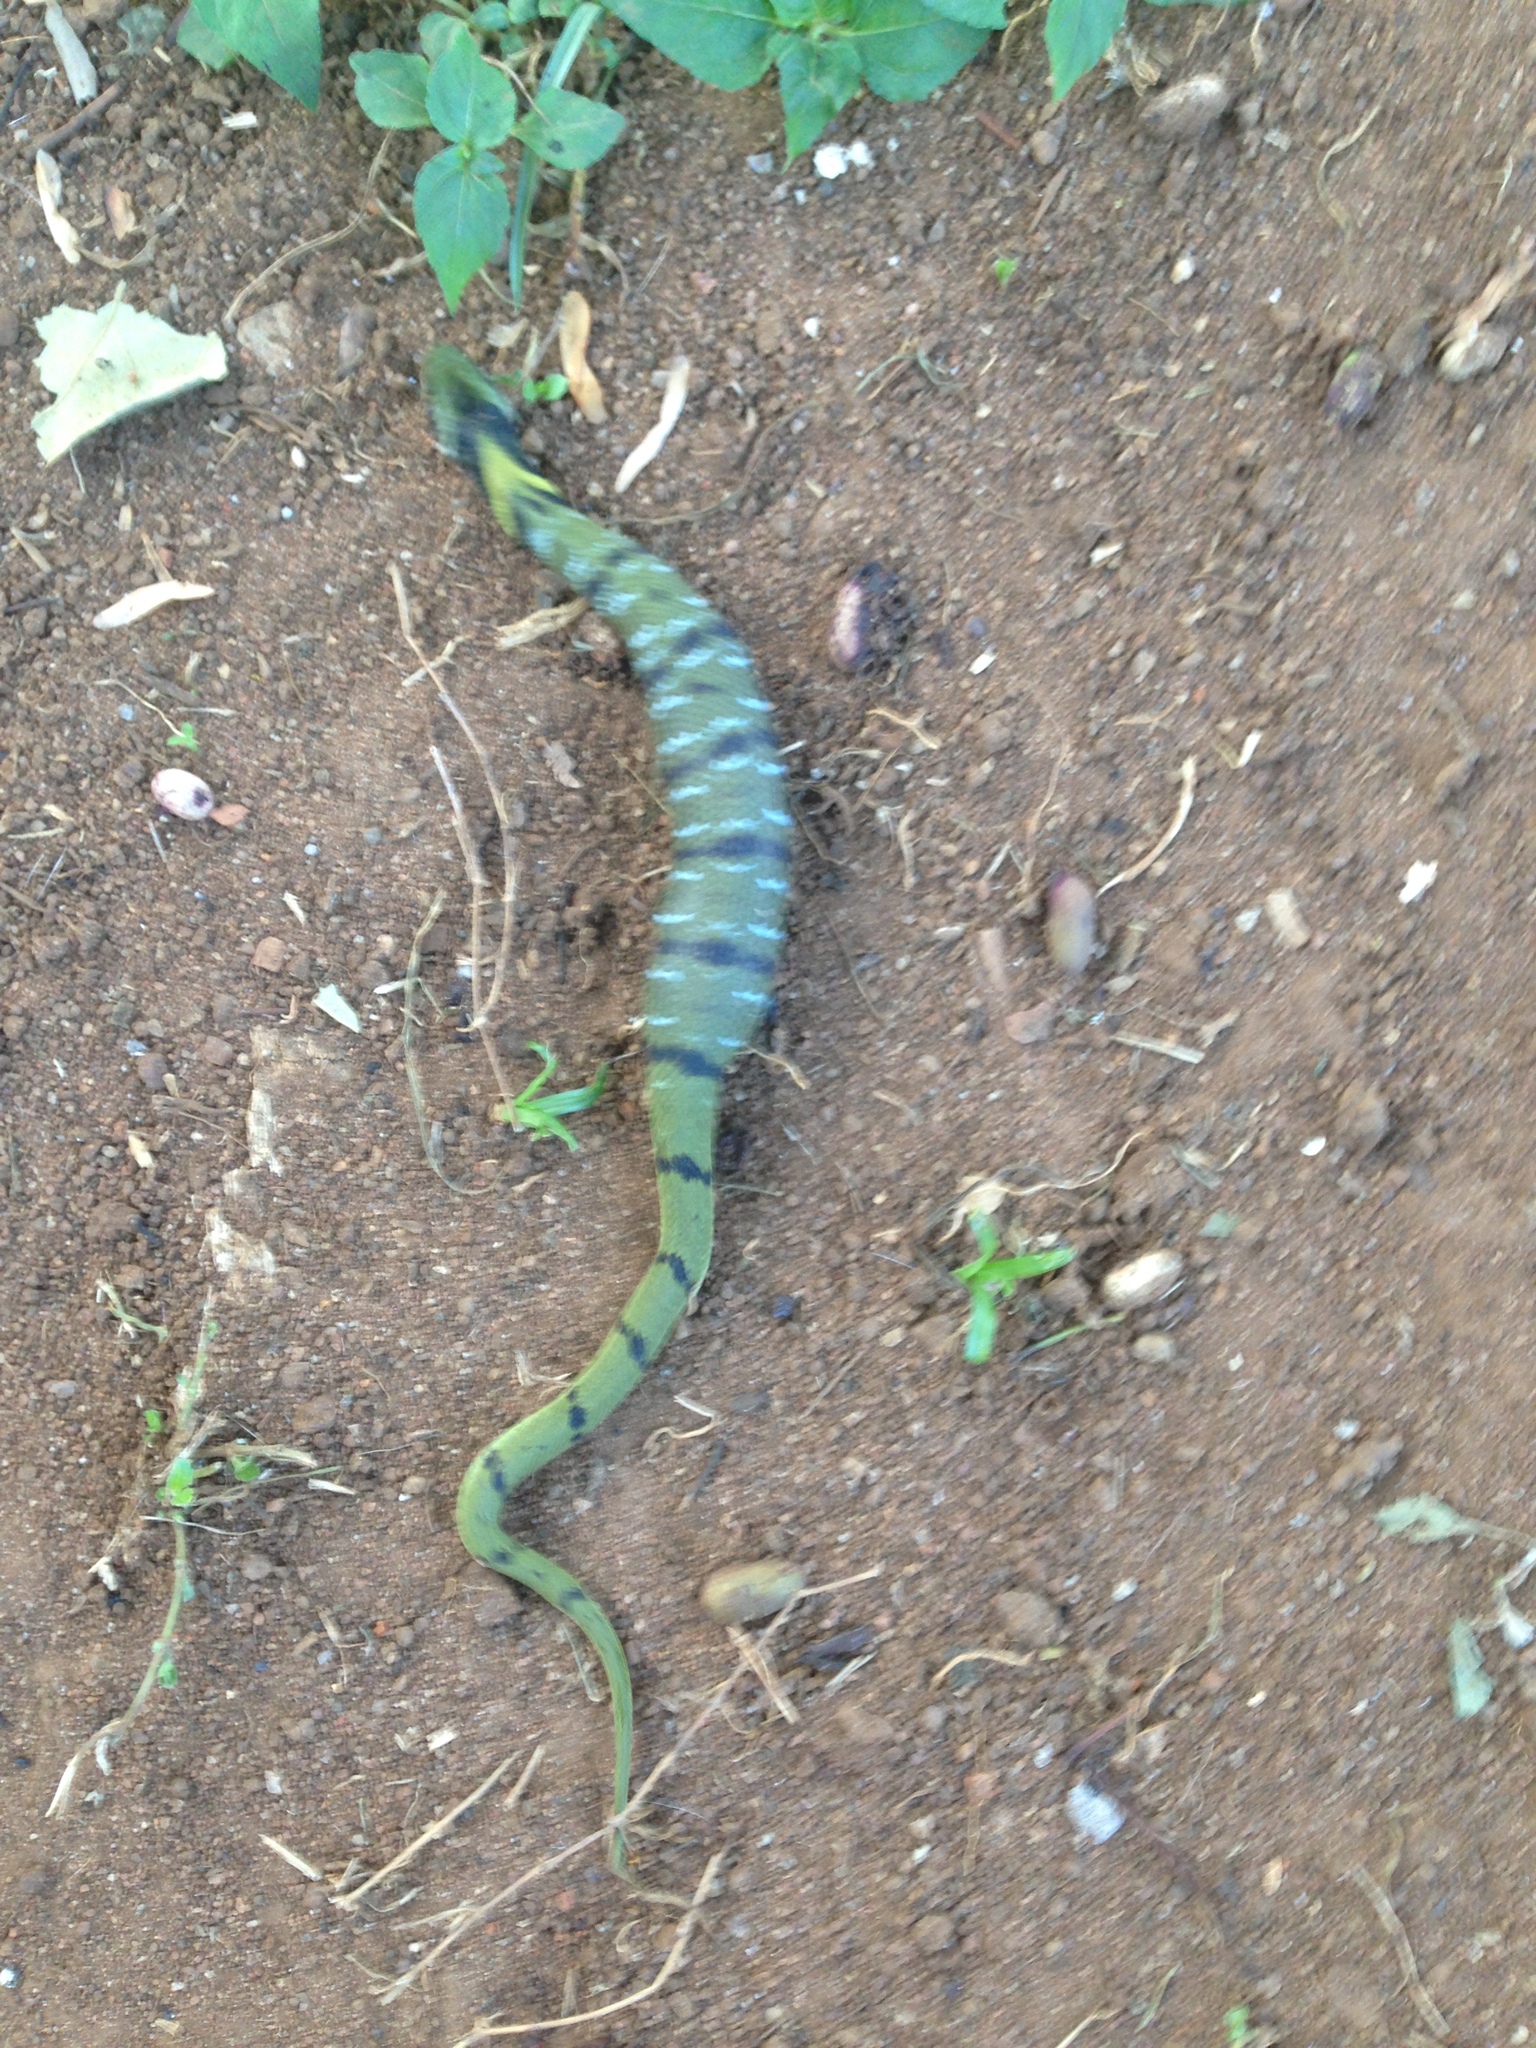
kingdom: Animalia
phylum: Chordata
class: Squamata
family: Colubridae
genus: Rhabdophis
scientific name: Rhabdophis plumbicolor
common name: Green keelback
